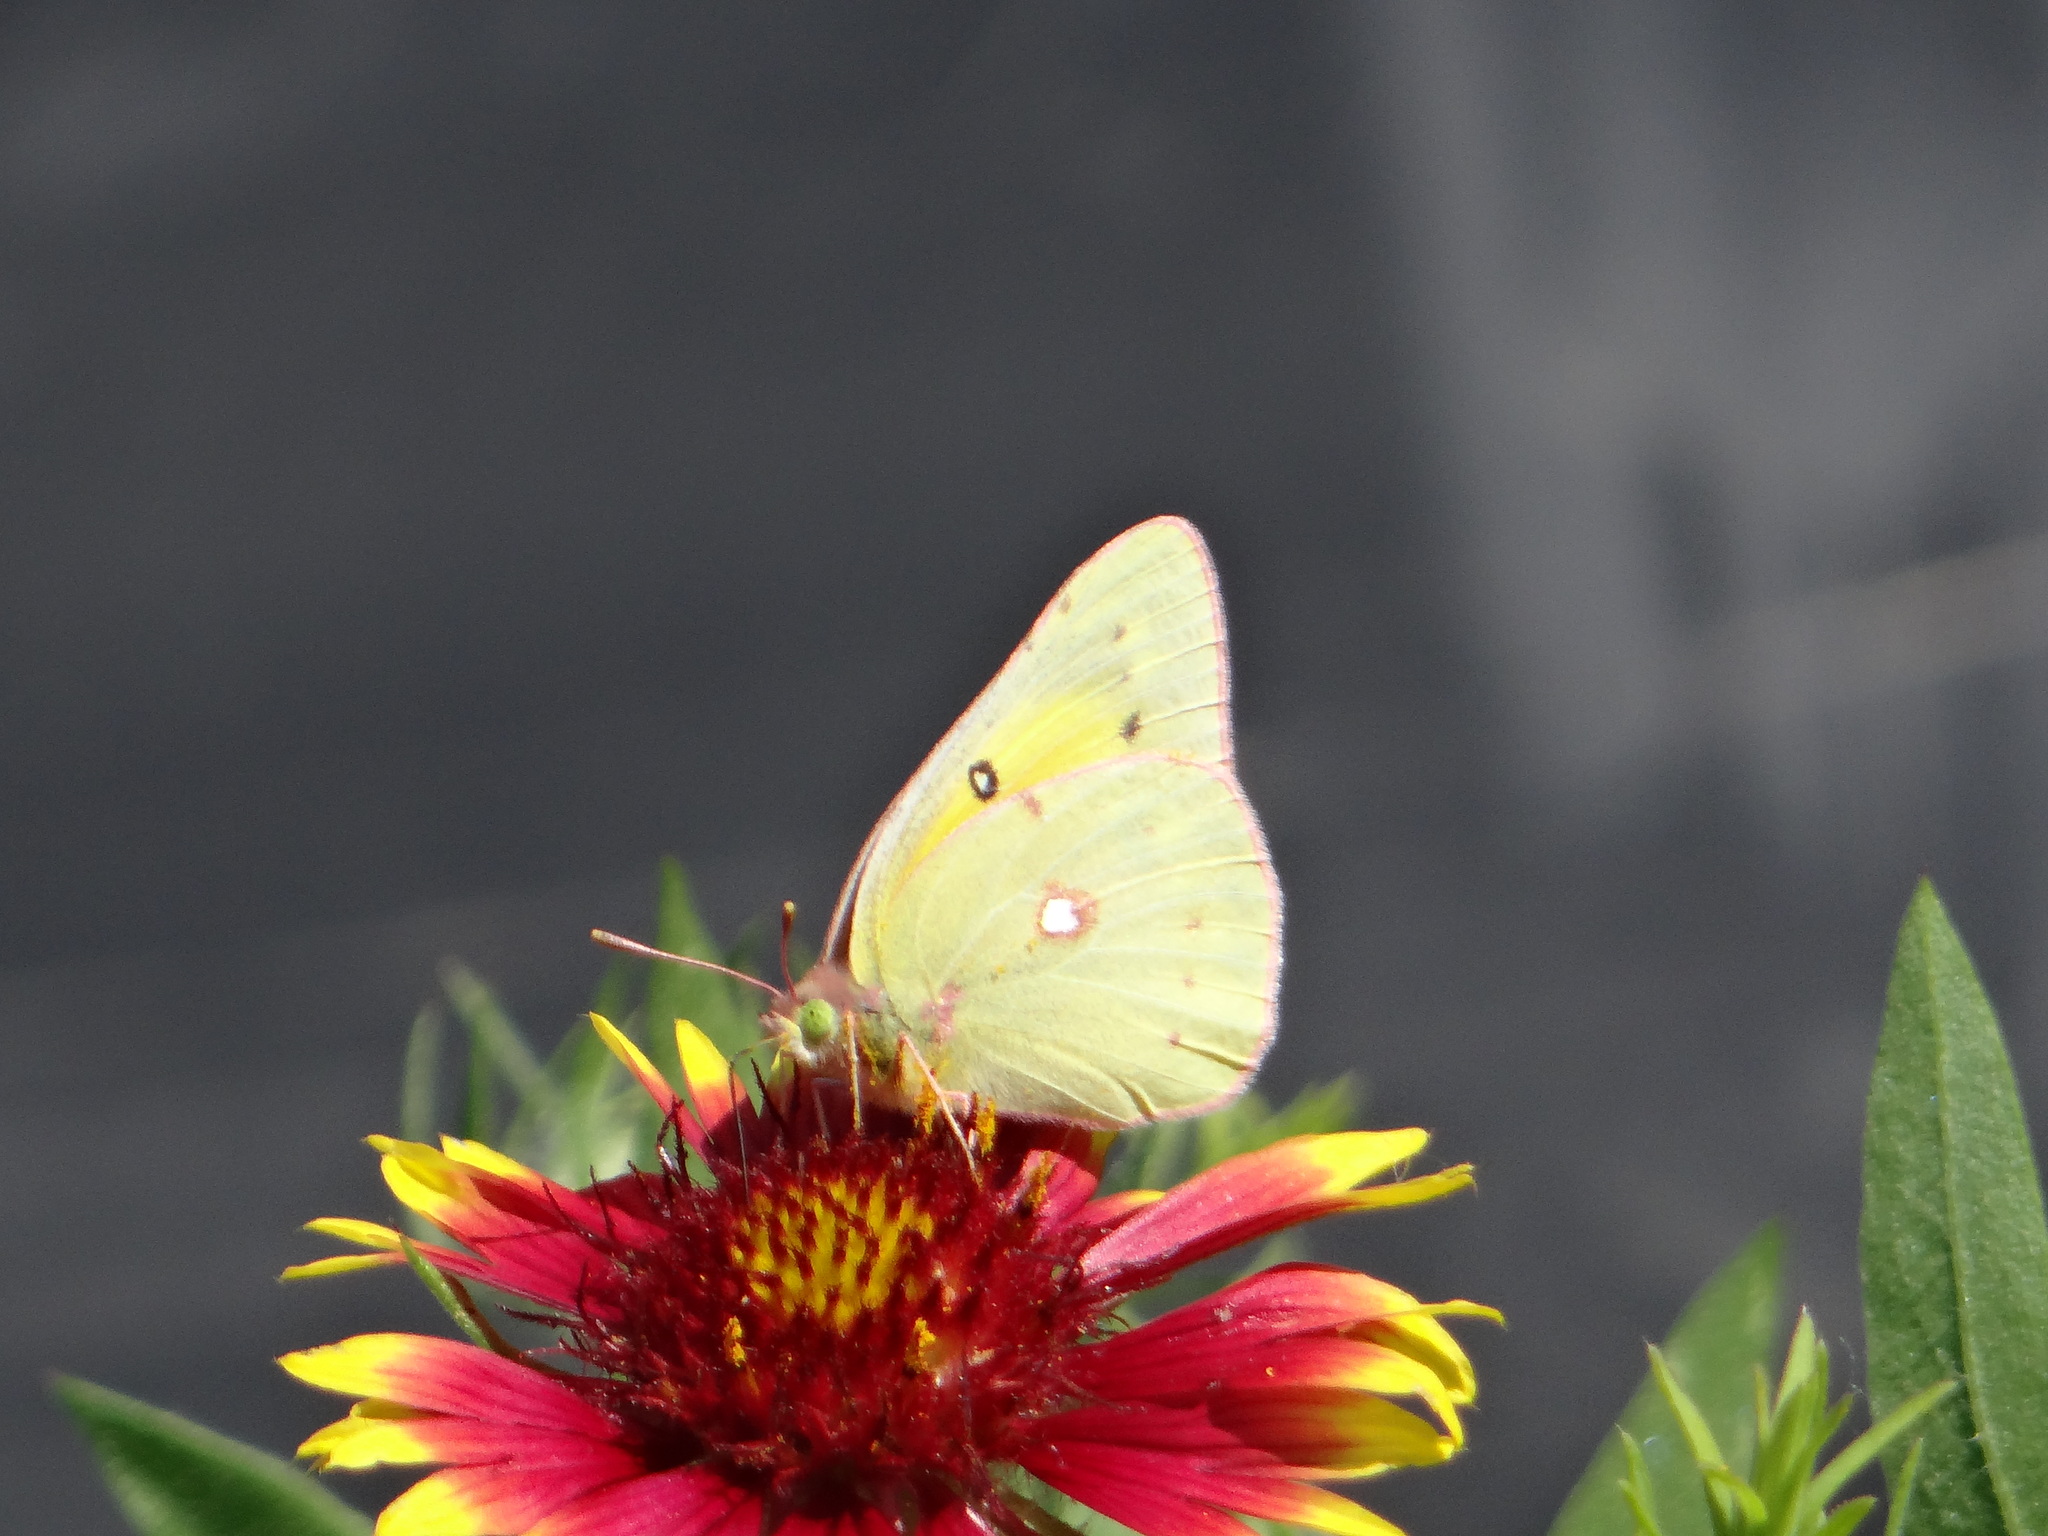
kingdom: Animalia
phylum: Arthropoda
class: Insecta
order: Lepidoptera
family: Pieridae
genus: Colias
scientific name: Colias eurytheme
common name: Alfalfa butterfly
